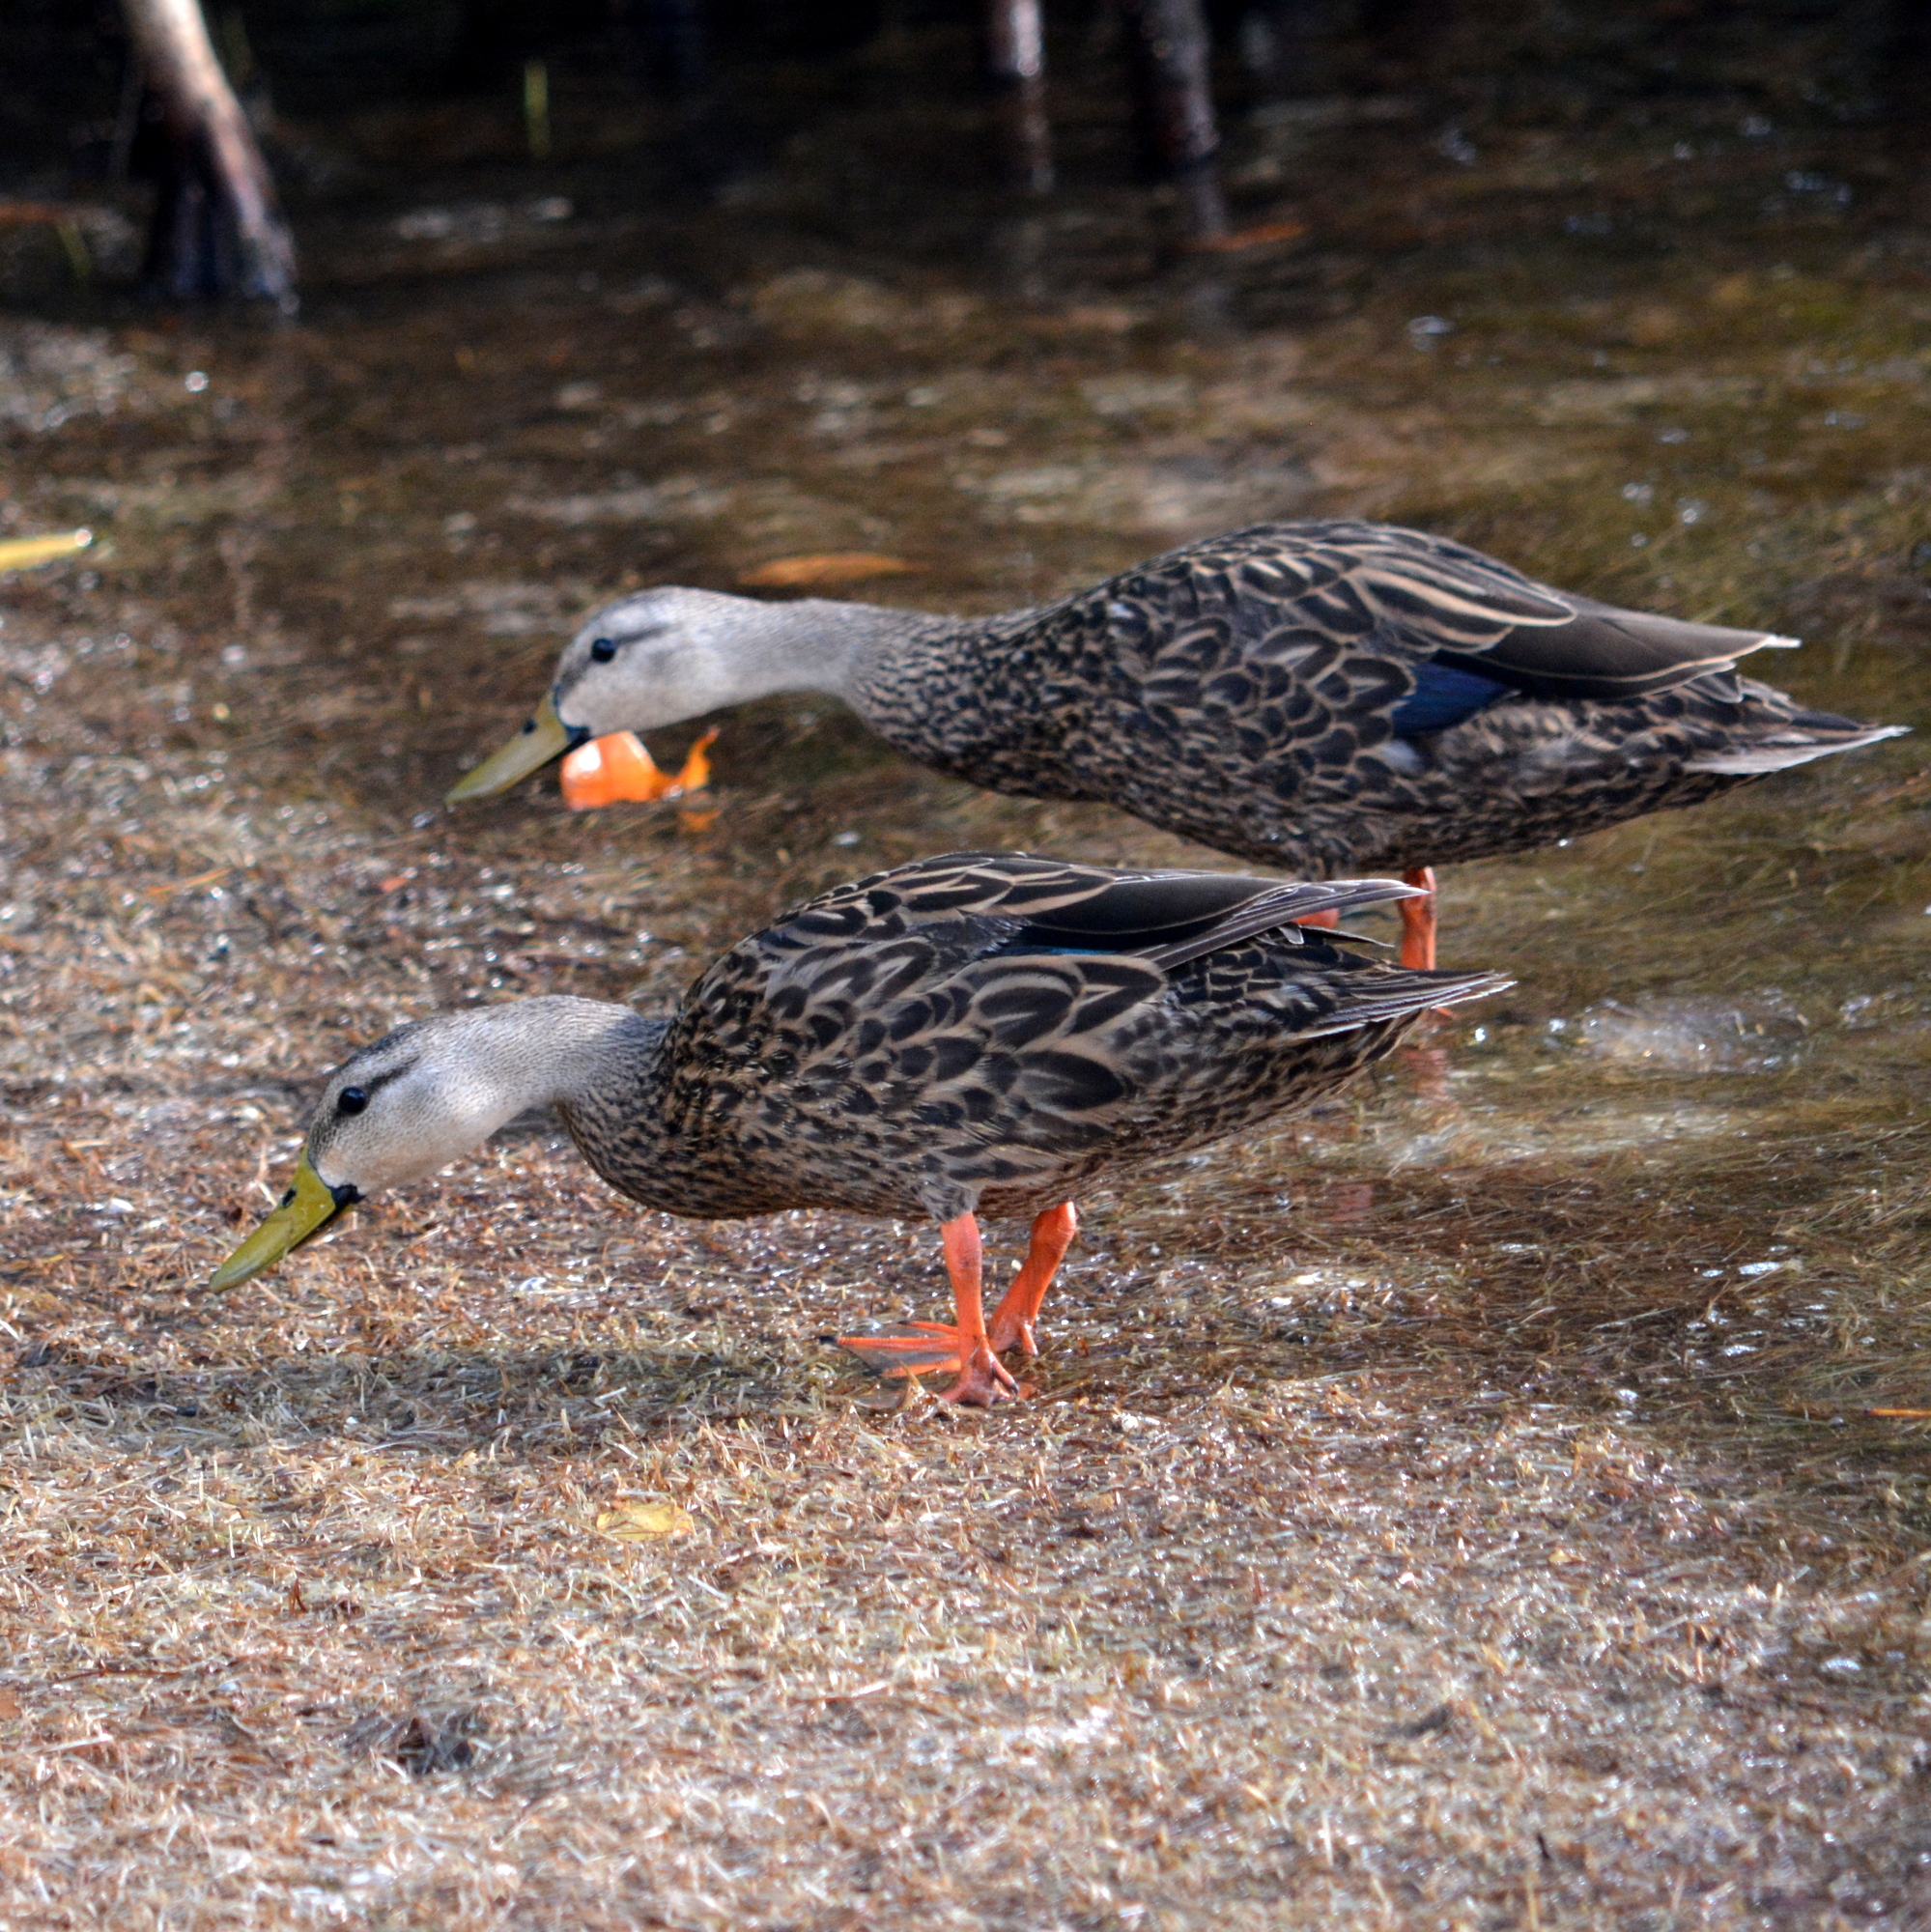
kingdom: Animalia
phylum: Chordata
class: Aves
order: Anseriformes
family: Anatidae
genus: Anas
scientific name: Anas fulvigula
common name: Mottled duck
